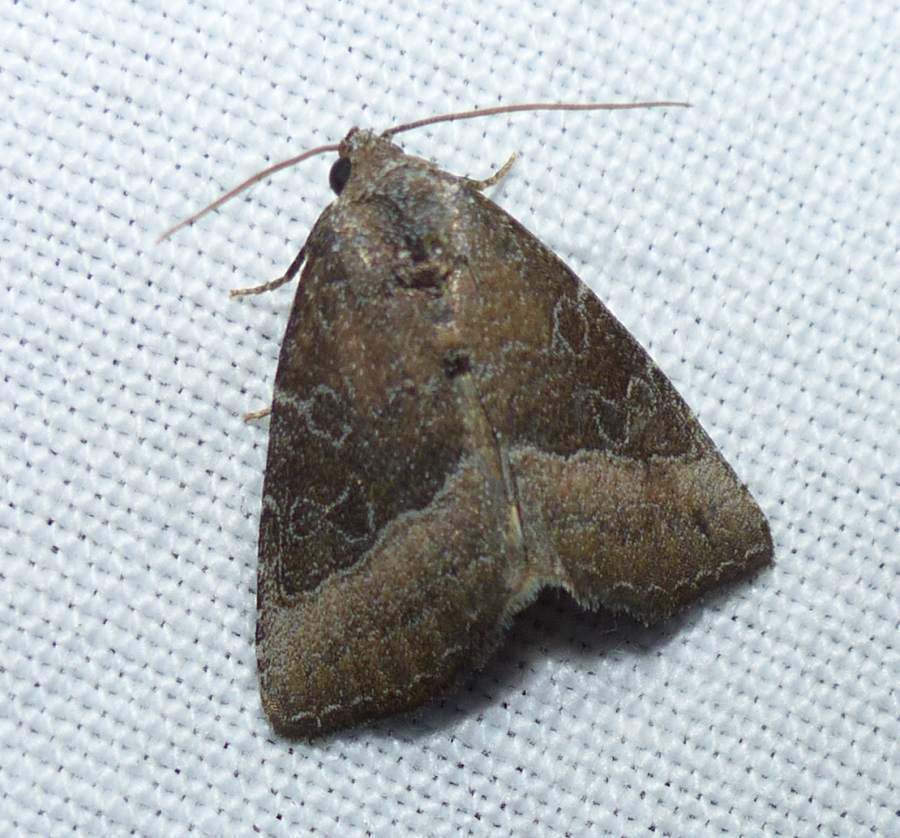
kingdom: Animalia
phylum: Arthropoda
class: Insecta
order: Lepidoptera
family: Noctuidae
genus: Ogdoconta
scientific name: Ogdoconta cinereola
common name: Common pinkband
